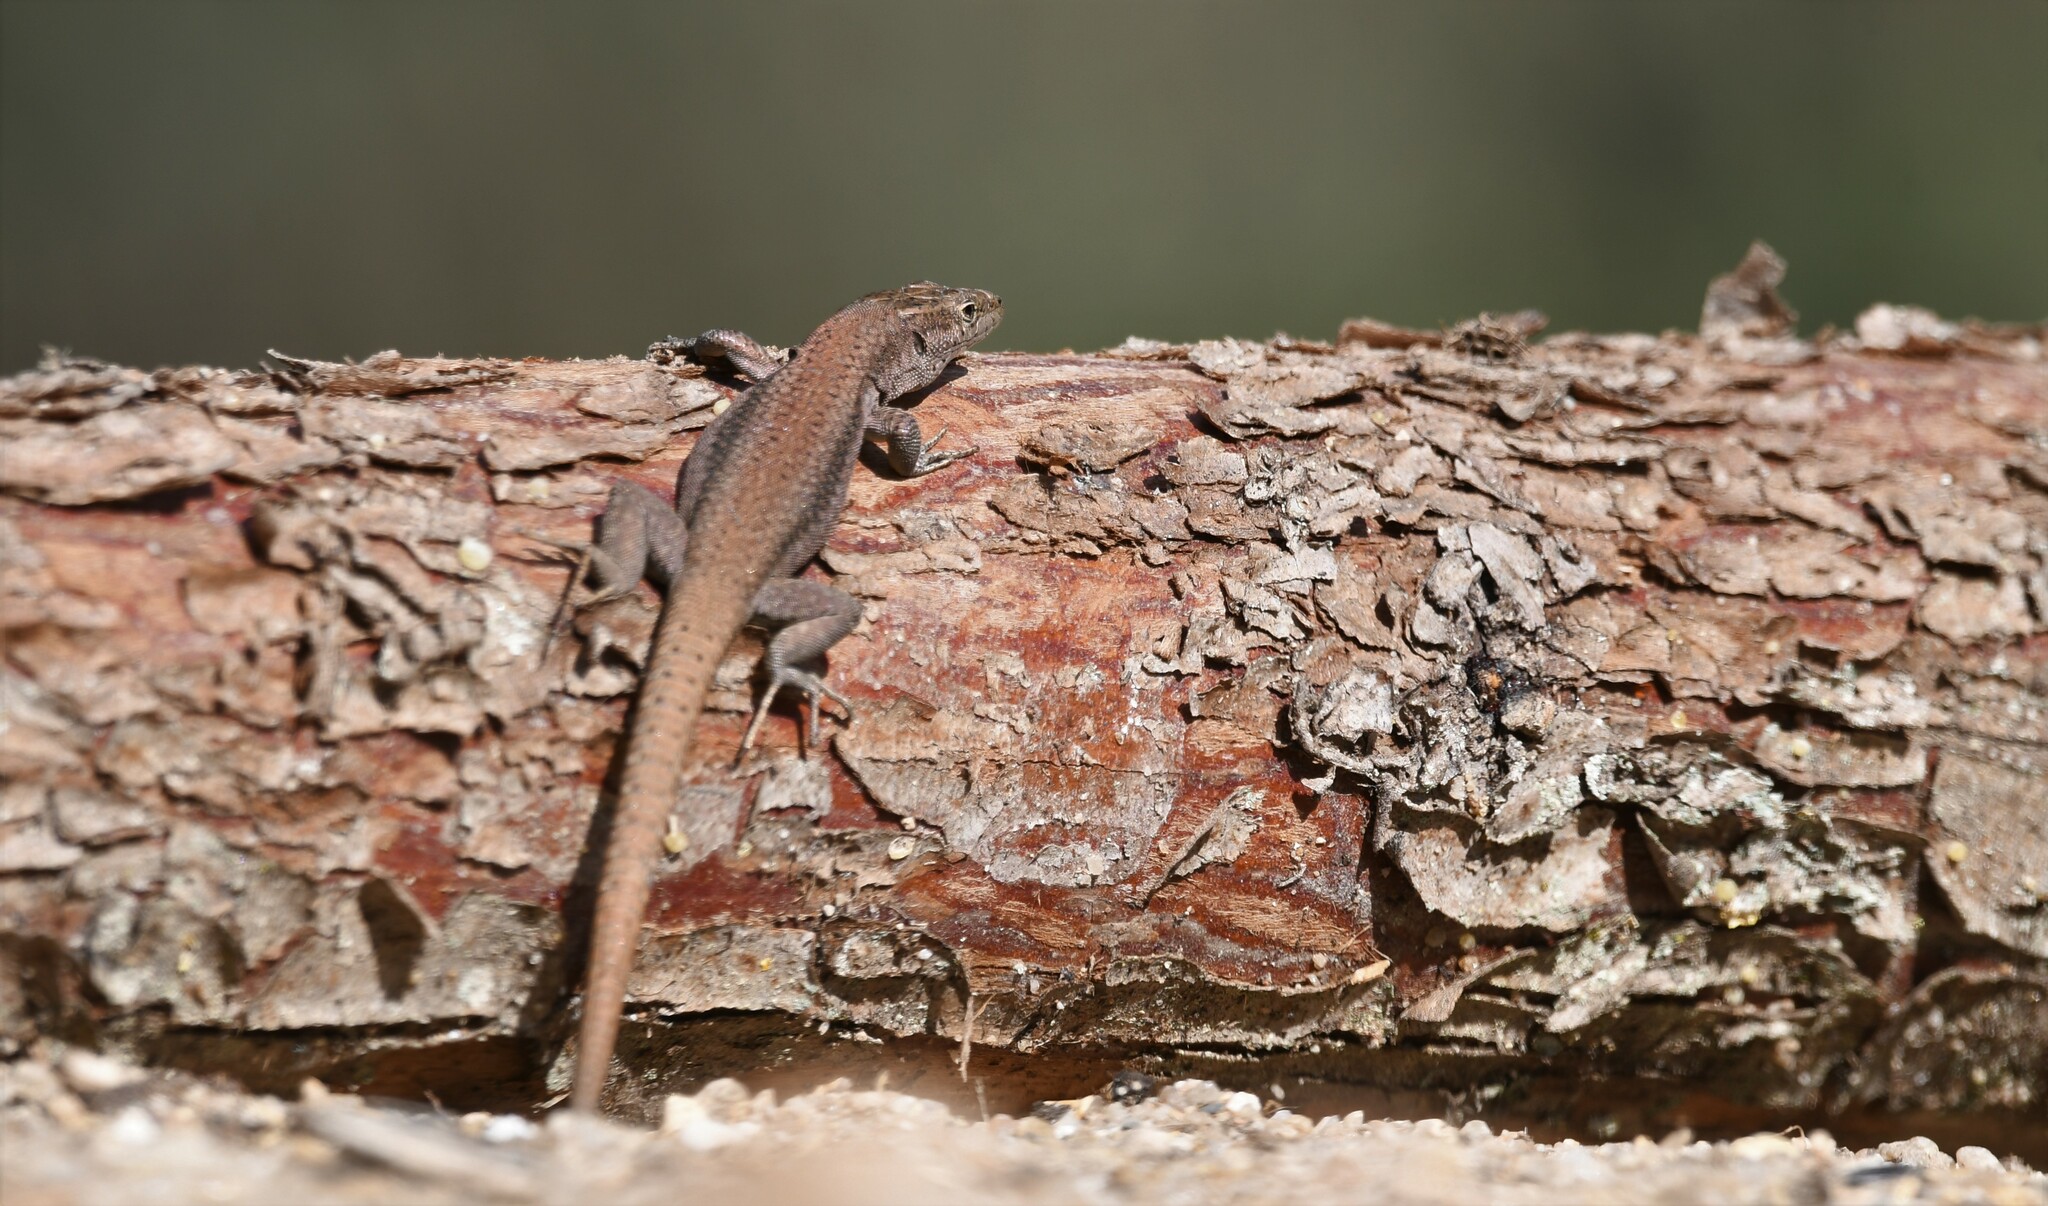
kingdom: Animalia
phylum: Chordata
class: Squamata
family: Lacertidae
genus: Podarcis
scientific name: Podarcis virescens
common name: Geniez’s wall lizard
